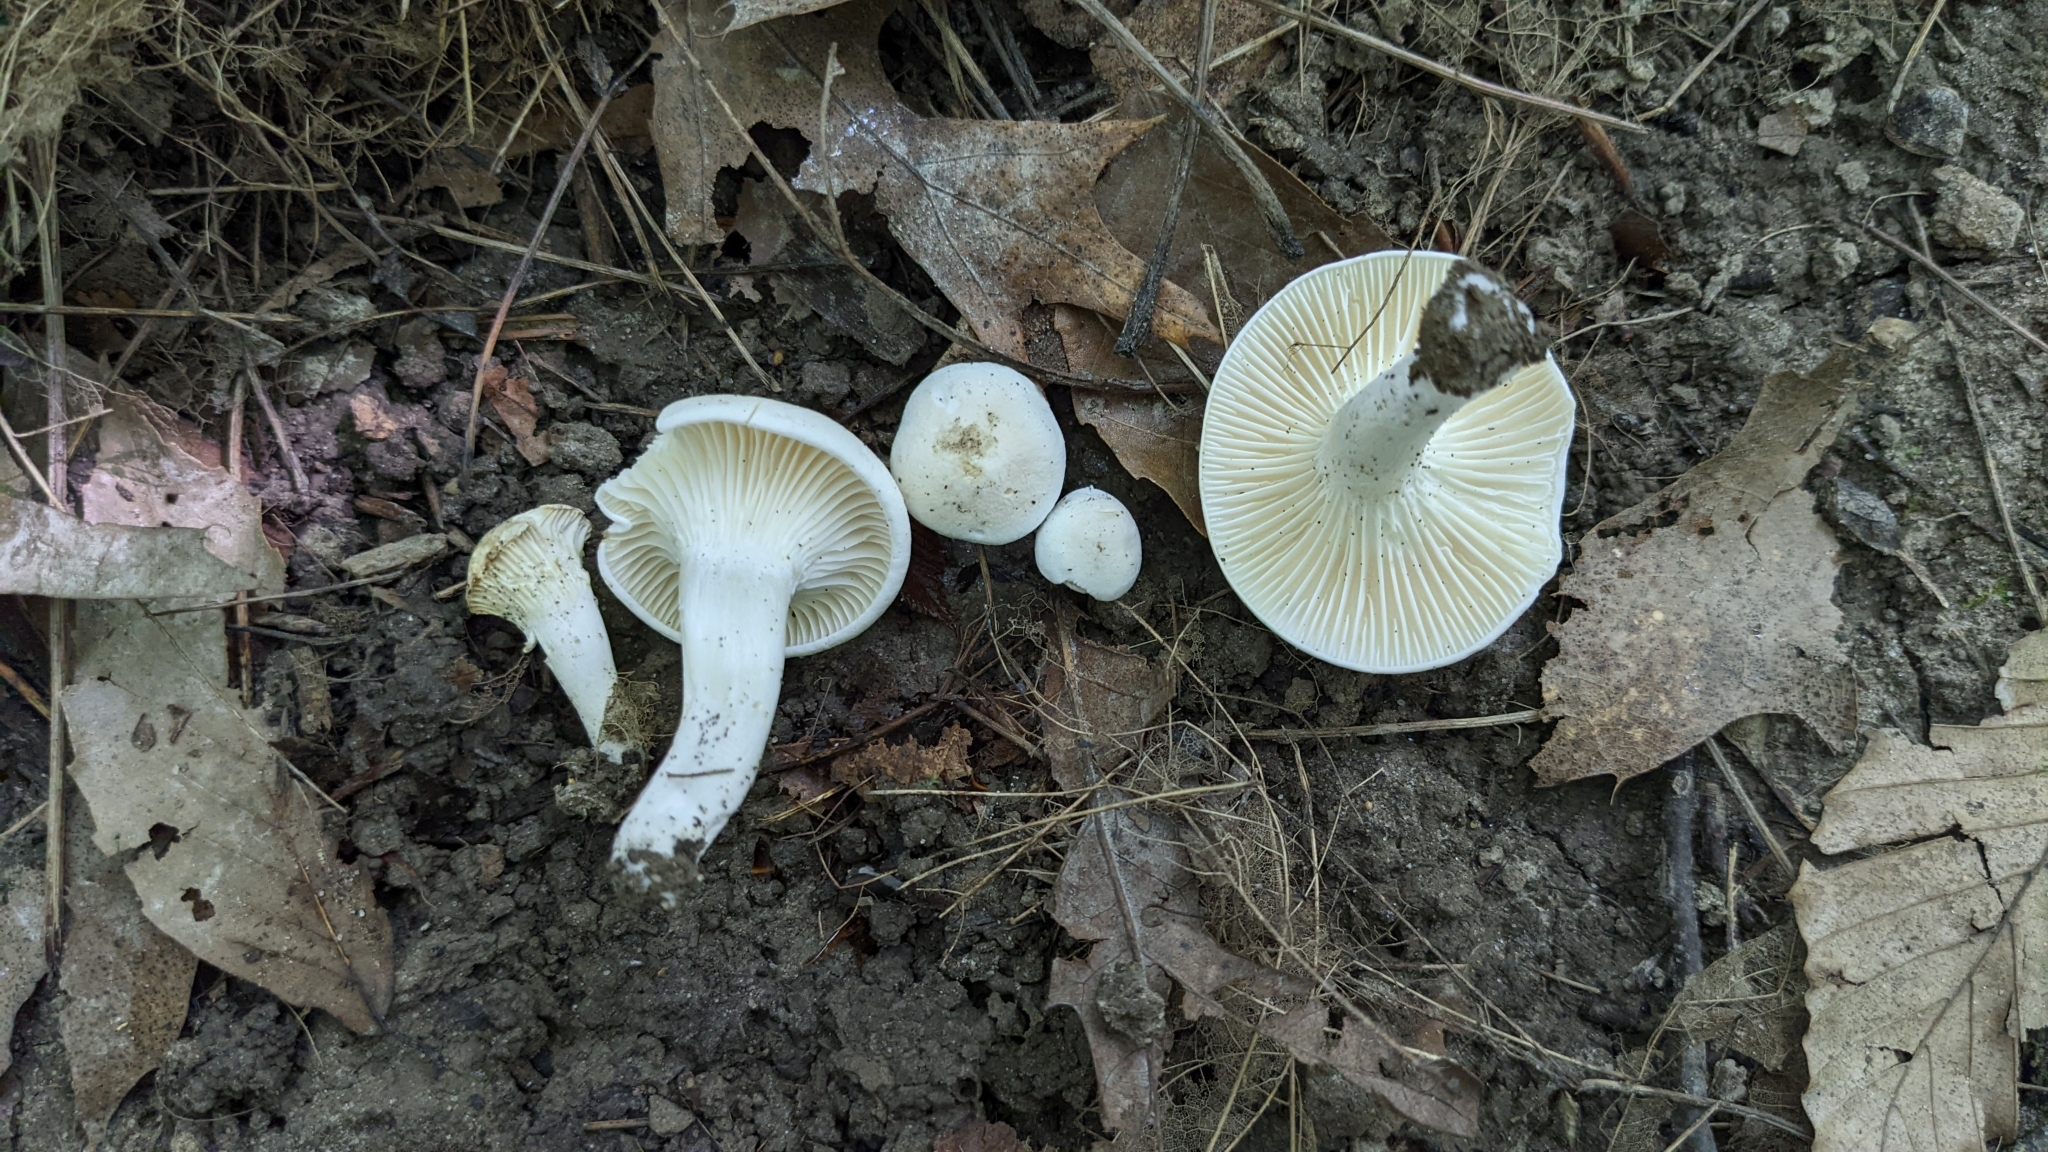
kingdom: Fungi
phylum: Basidiomycota
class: Agaricomycetes
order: Agaricales
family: Hygrophoraceae
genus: Hygrocybe
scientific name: Hygrocybe angustifolia
